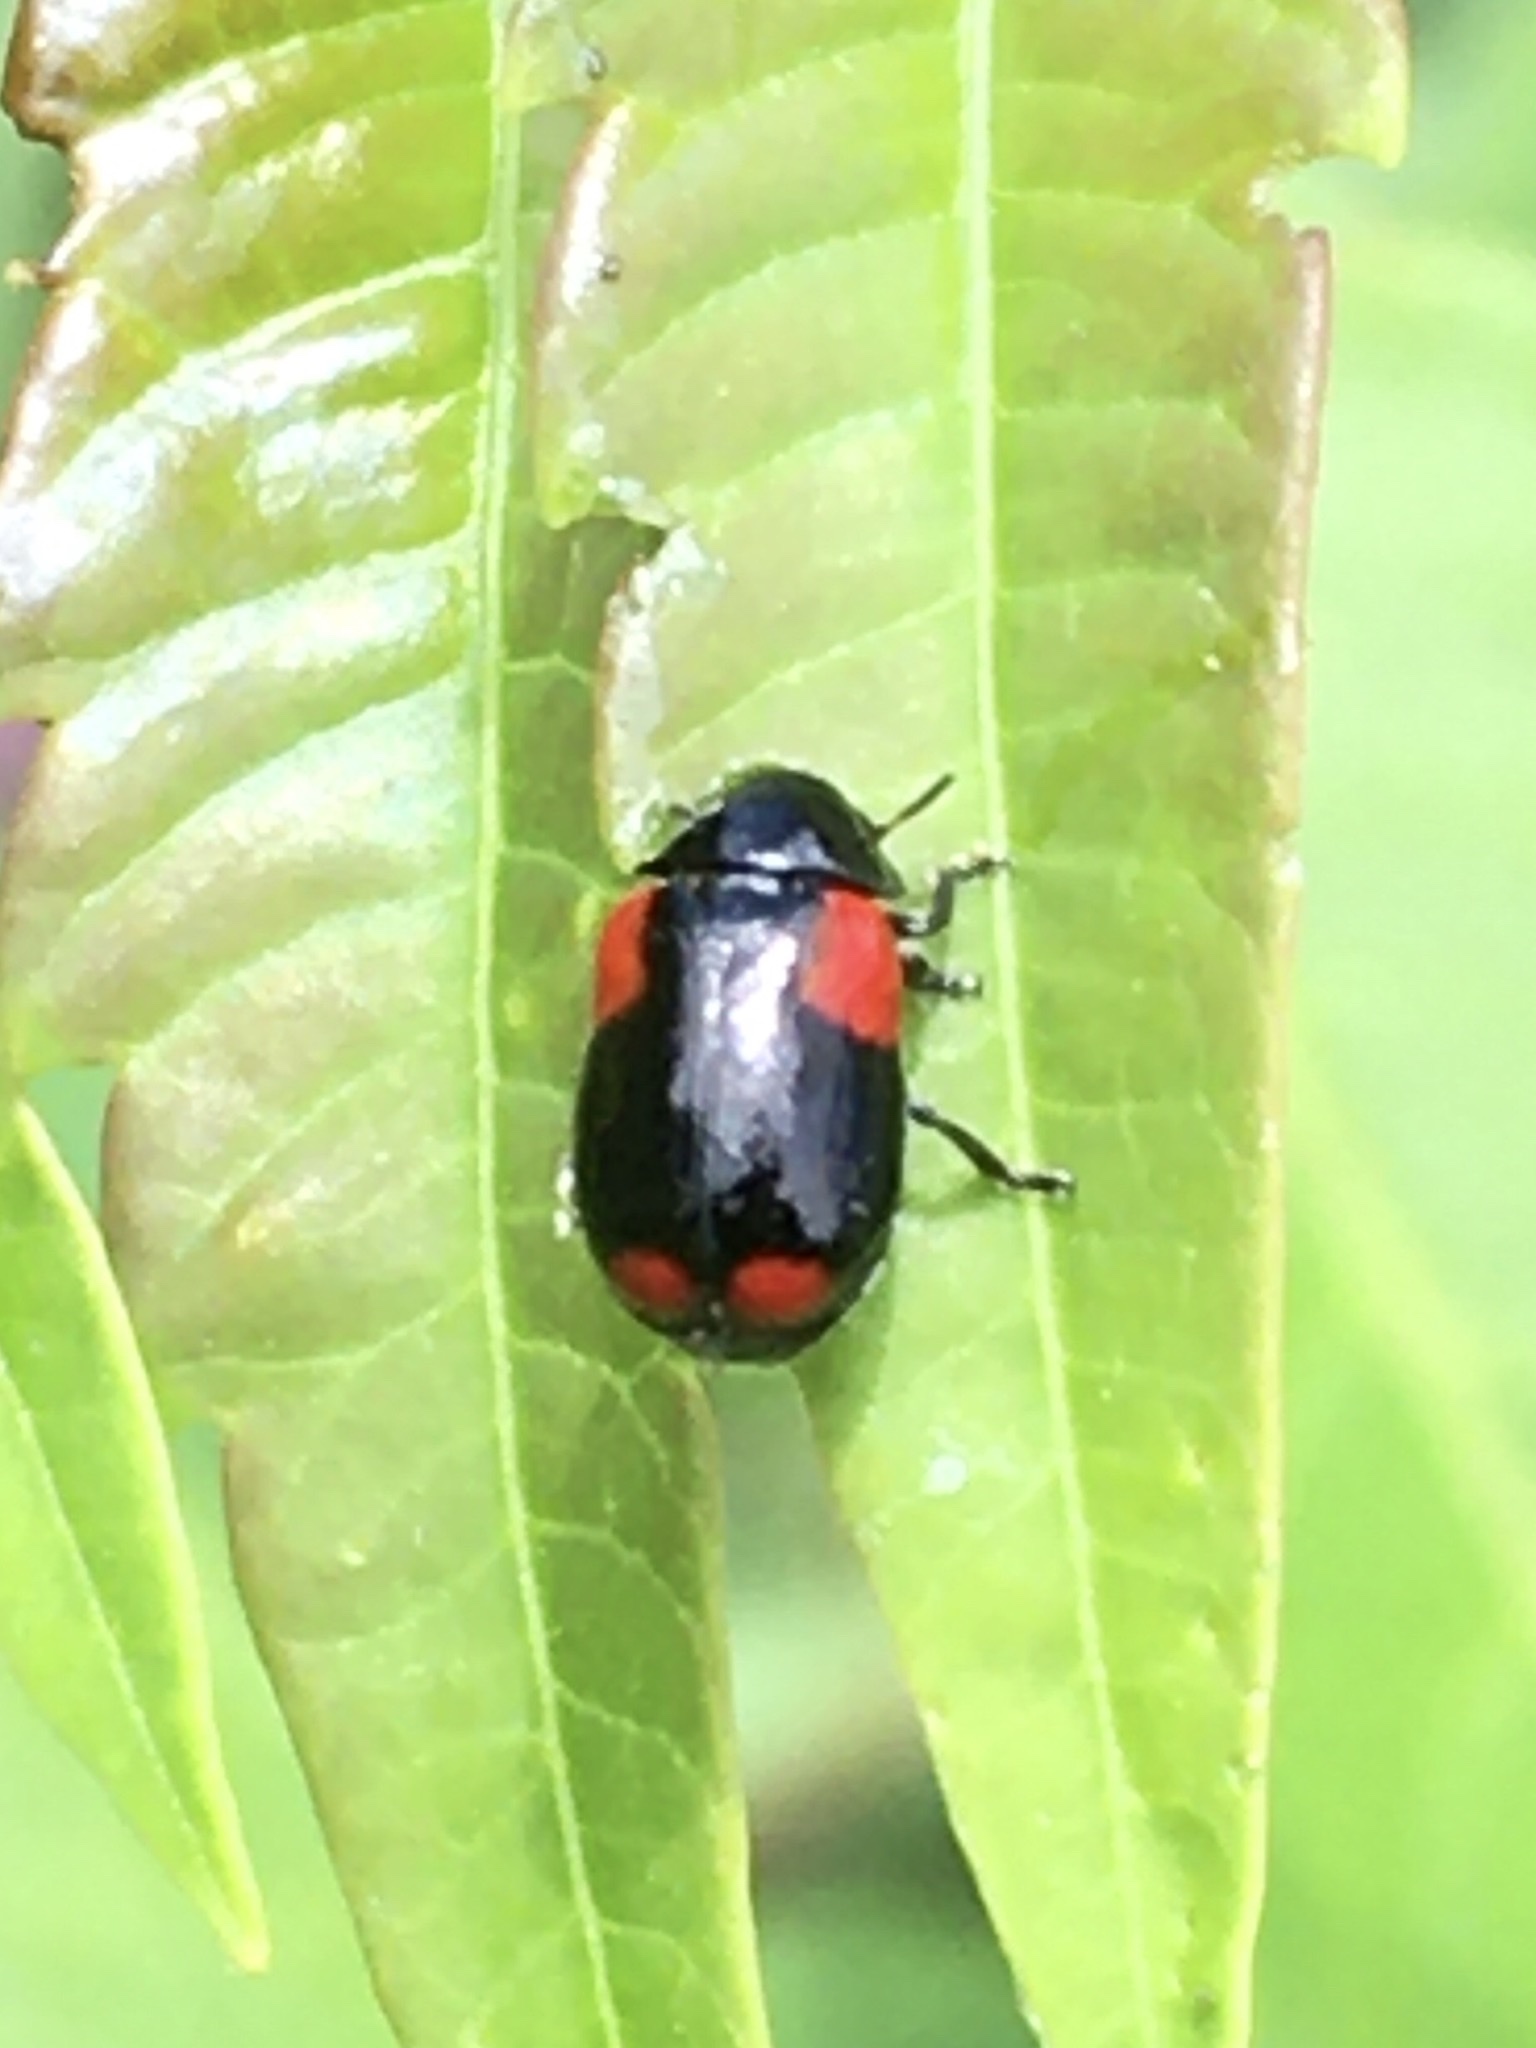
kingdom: Animalia
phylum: Arthropoda
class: Insecta
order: Coleoptera
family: Chrysomelidae
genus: Babia
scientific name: Babia quadriguttata
